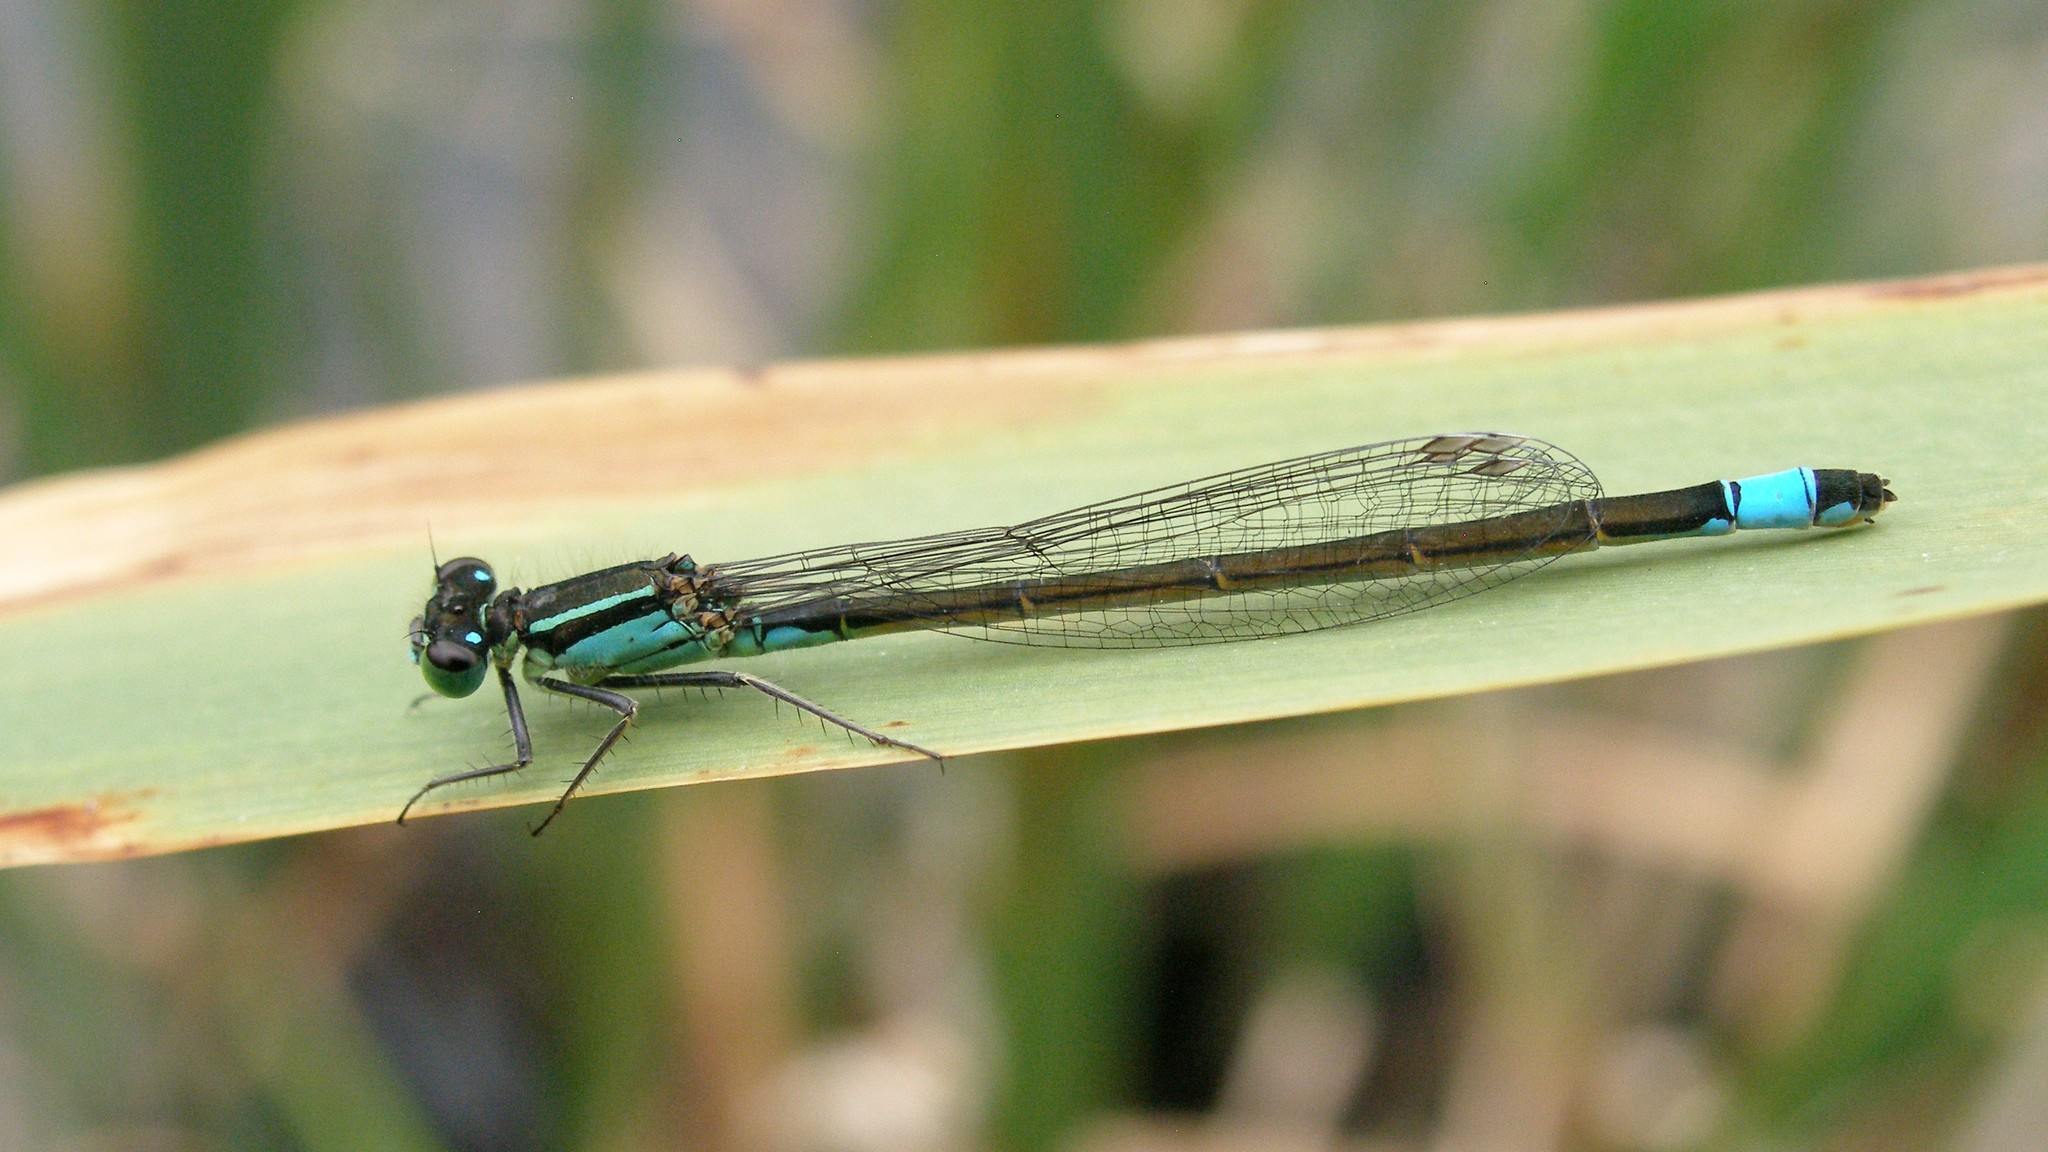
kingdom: Animalia
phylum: Arthropoda
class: Insecta
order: Odonata
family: Coenagrionidae
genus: Ischnura
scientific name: Ischnura elegans
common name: Blue-tailed damselfly
